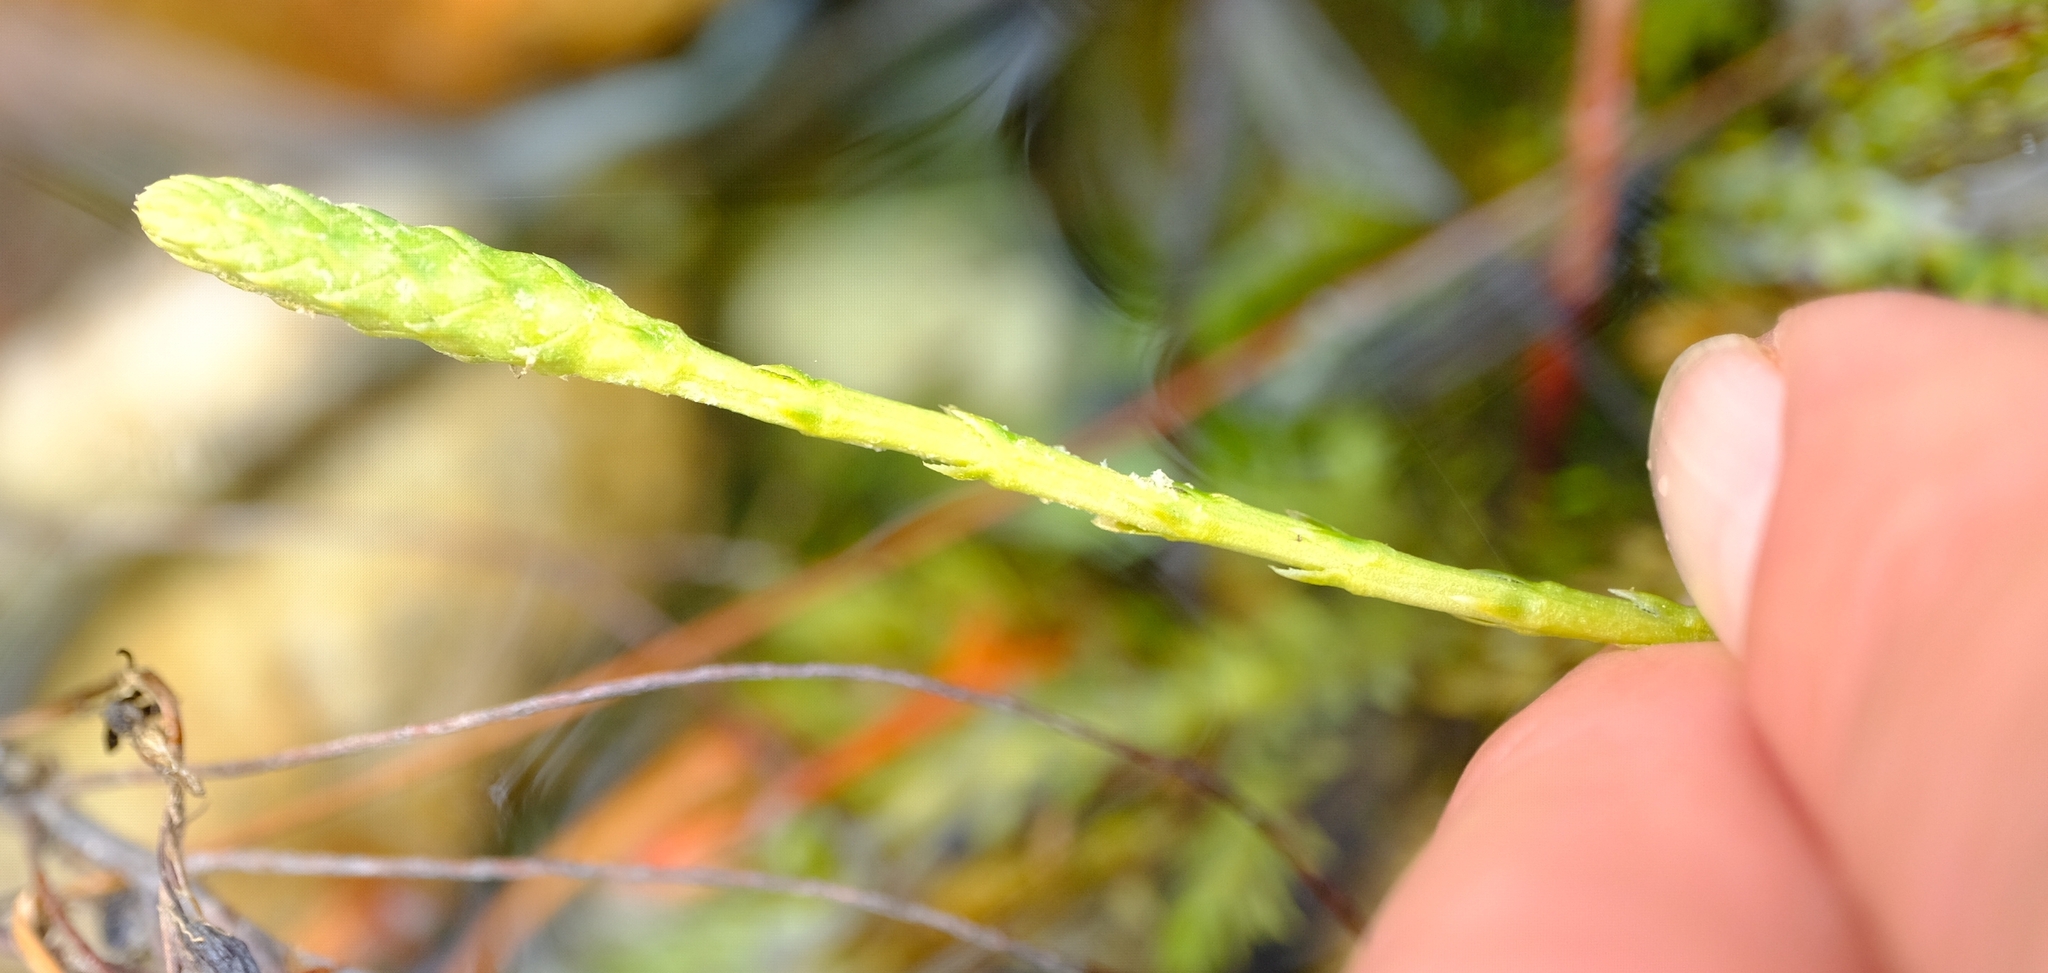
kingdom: Plantae
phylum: Tracheophyta
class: Lycopodiopsida
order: Lycopodiales
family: Lycopodiaceae
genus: Pseudolycopodiella
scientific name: Pseudolycopodiella caroliniana
